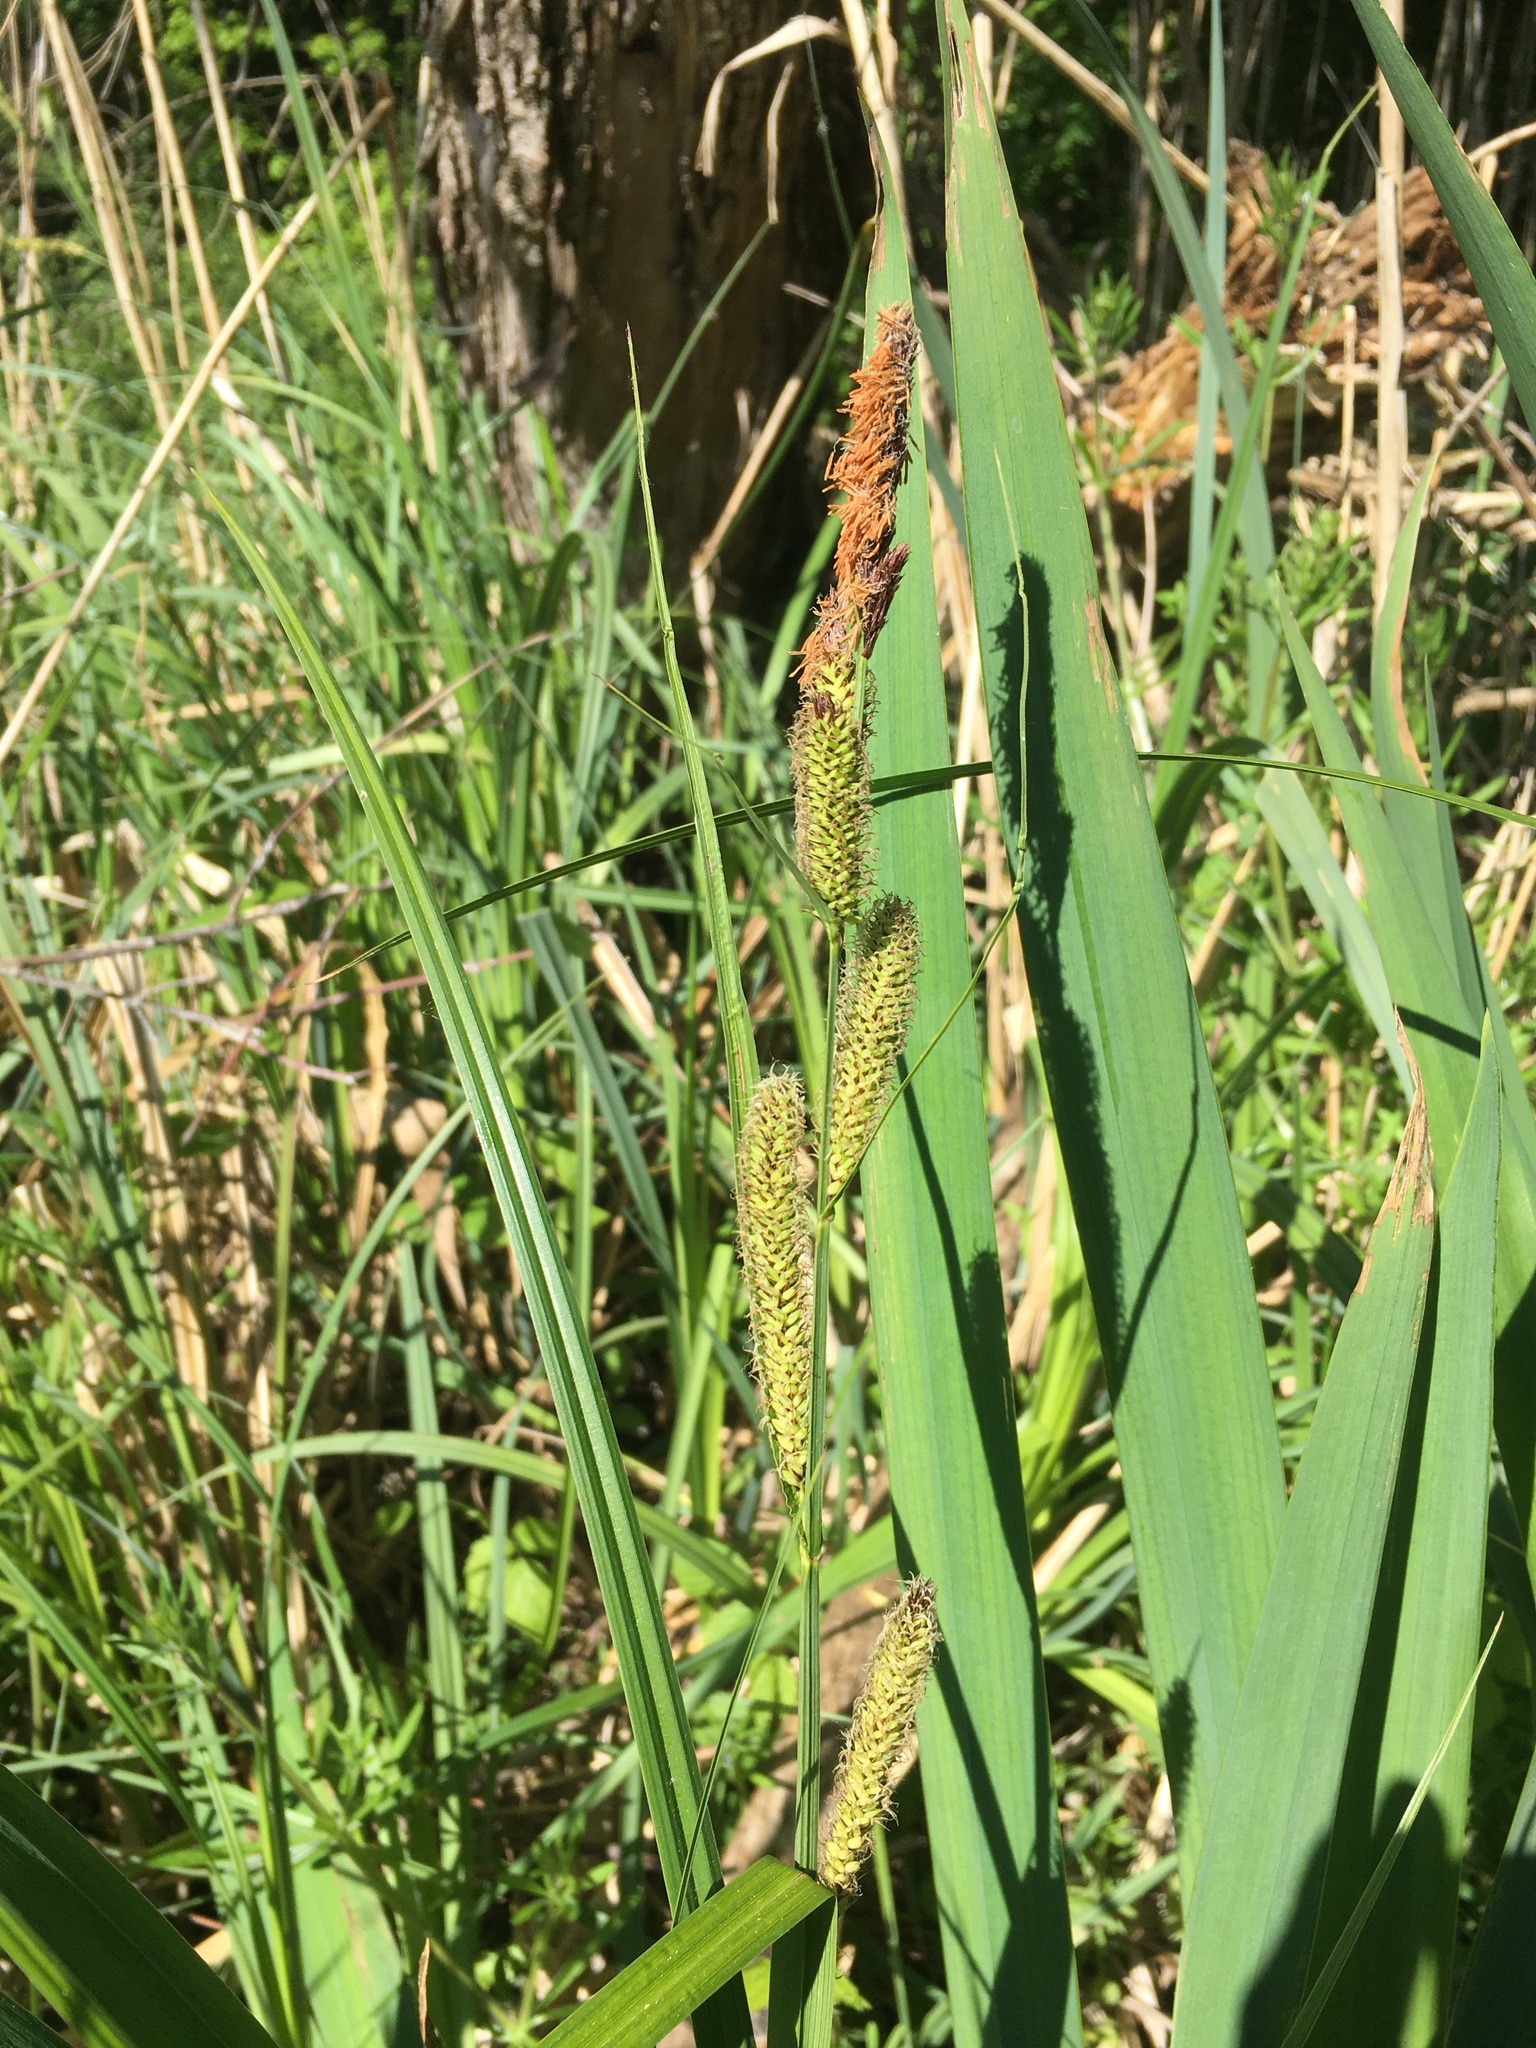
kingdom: Plantae
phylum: Tracheophyta
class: Liliopsida
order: Poales
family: Cyperaceae
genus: Carex
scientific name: Carex acuta
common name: Slender tufted-sedge
